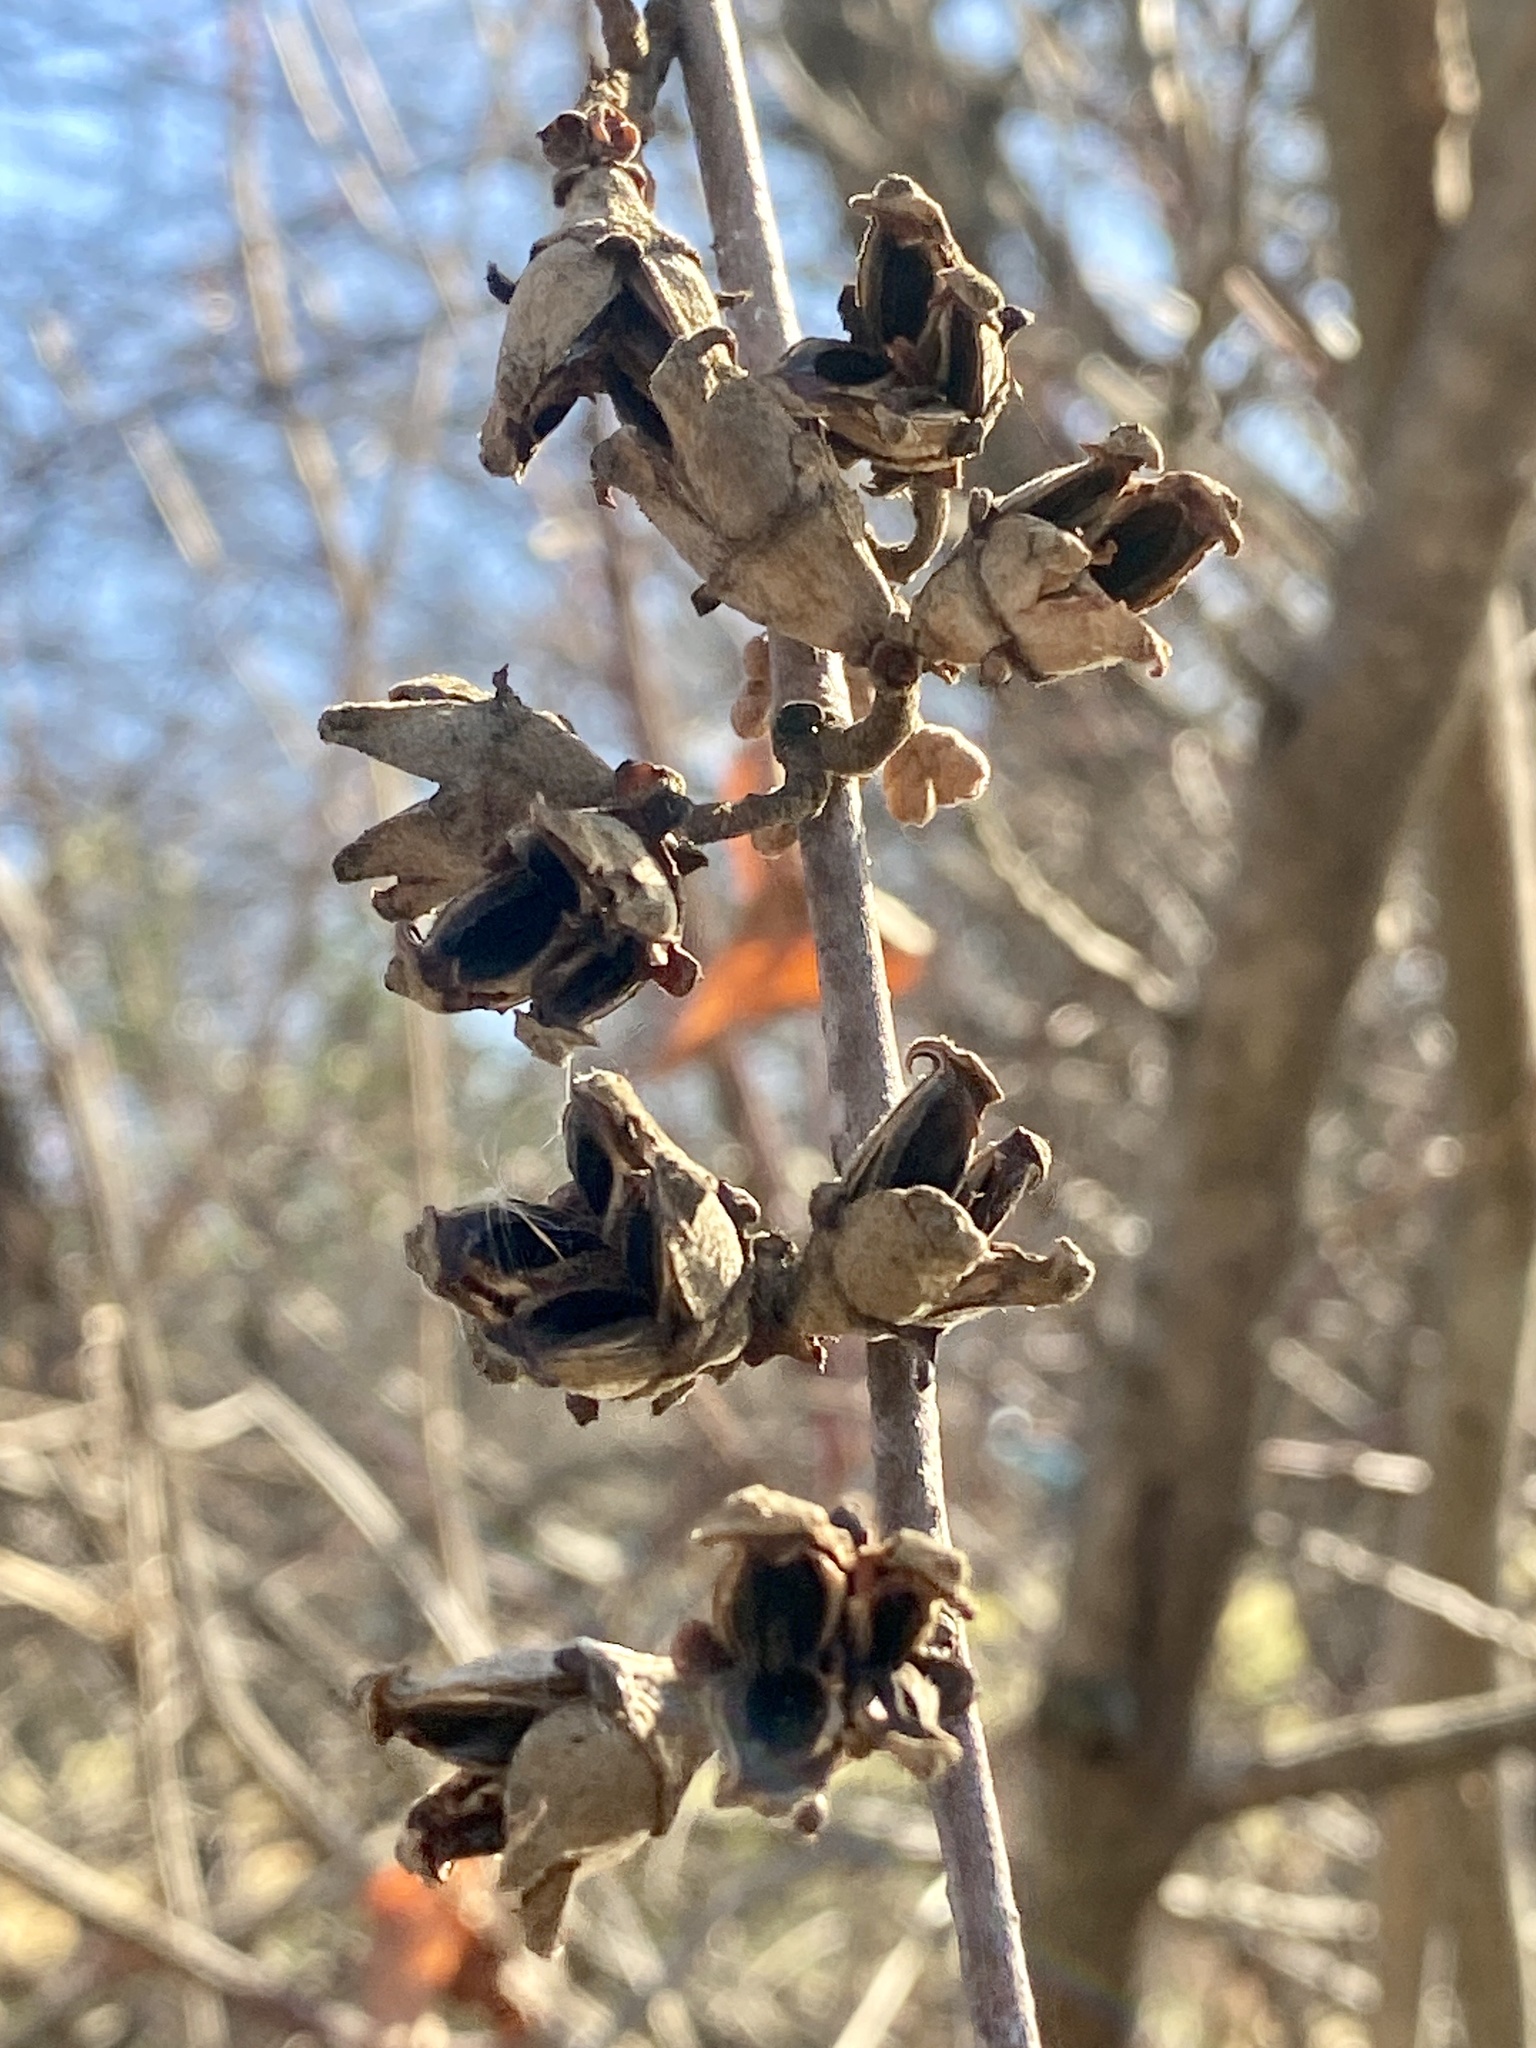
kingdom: Plantae
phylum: Tracheophyta
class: Magnoliopsida
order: Saxifragales
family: Hamamelidaceae
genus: Hamamelis
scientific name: Hamamelis virginiana
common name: Witch-hazel
